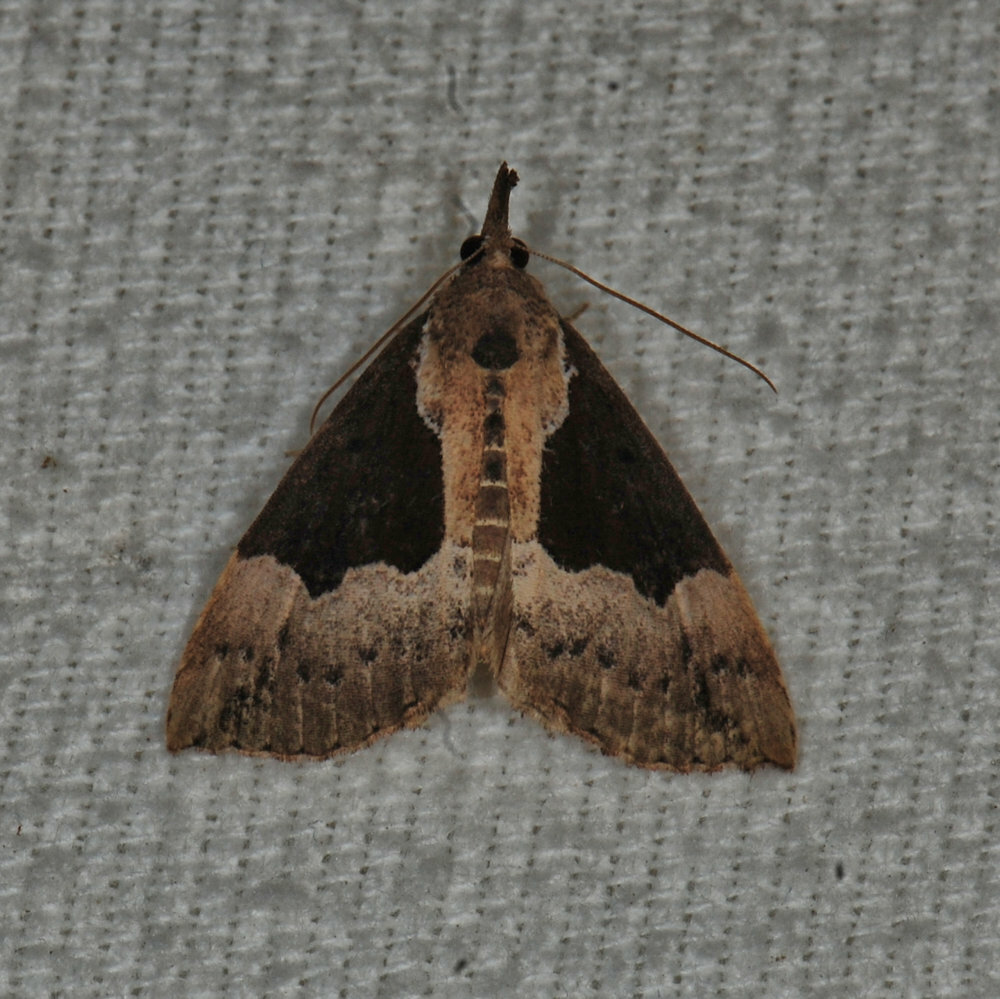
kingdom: Animalia
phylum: Arthropoda
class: Insecta
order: Lepidoptera
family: Erebidae
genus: Hypena
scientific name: Hypena bijugalis
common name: Dimorphic bomolocha moth
